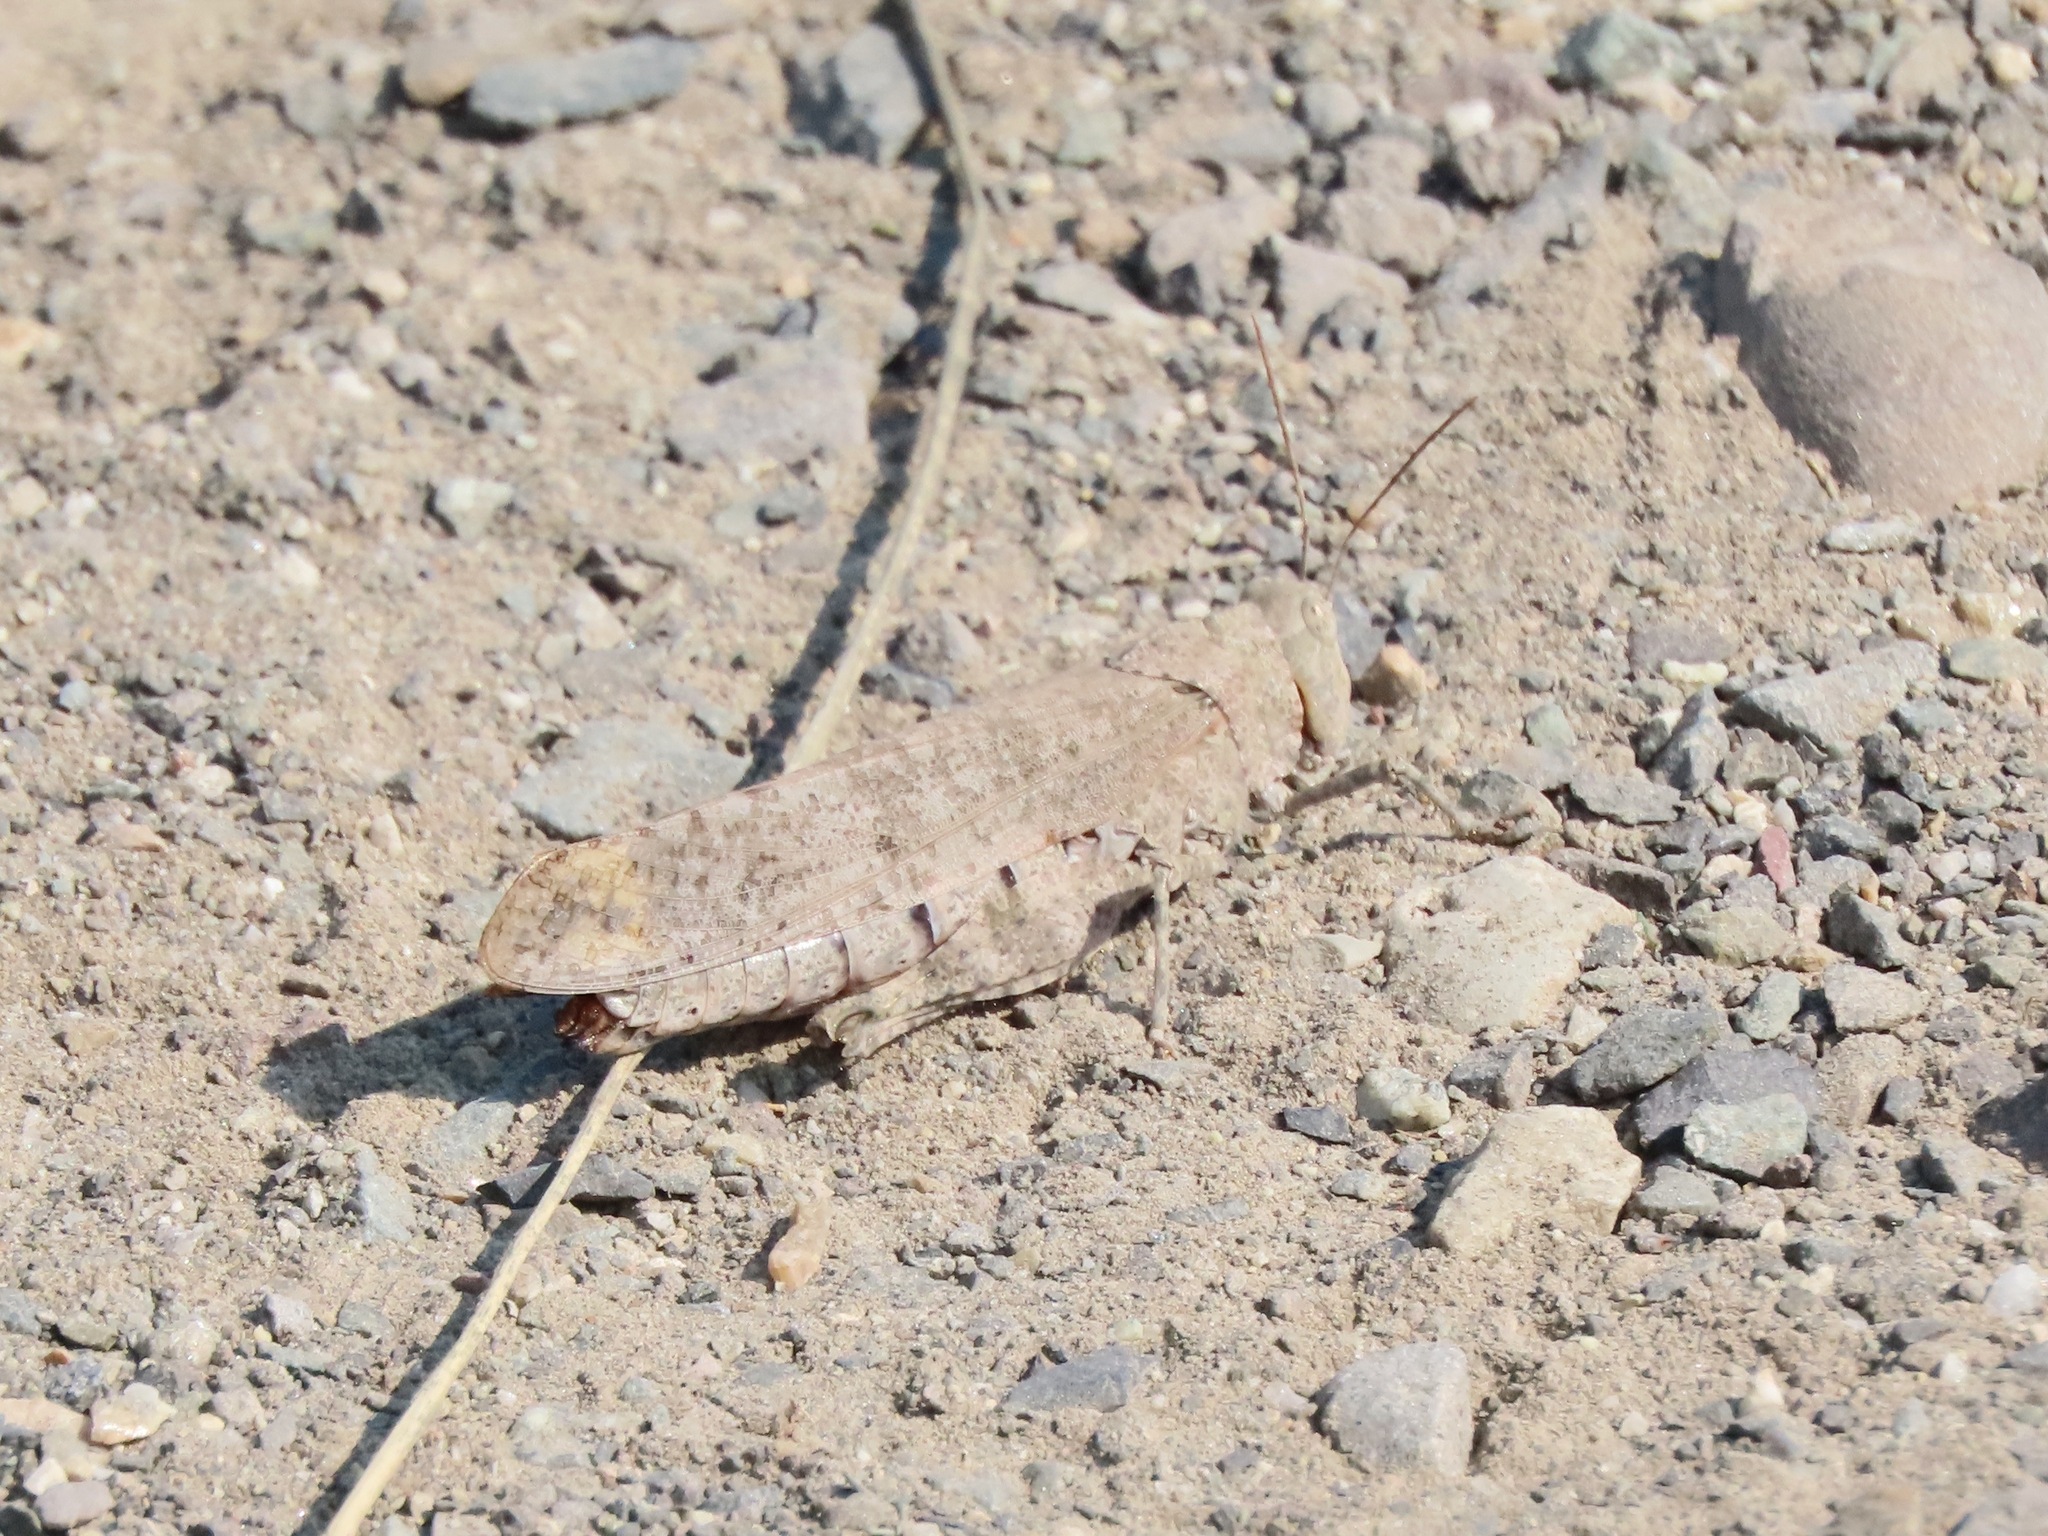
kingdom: Animalia
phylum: Arthropoda
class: Insecta
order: Orthoptera
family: Acrididae
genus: Dissosteira
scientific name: Dissosteira carolina
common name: Carolina grasshopper
